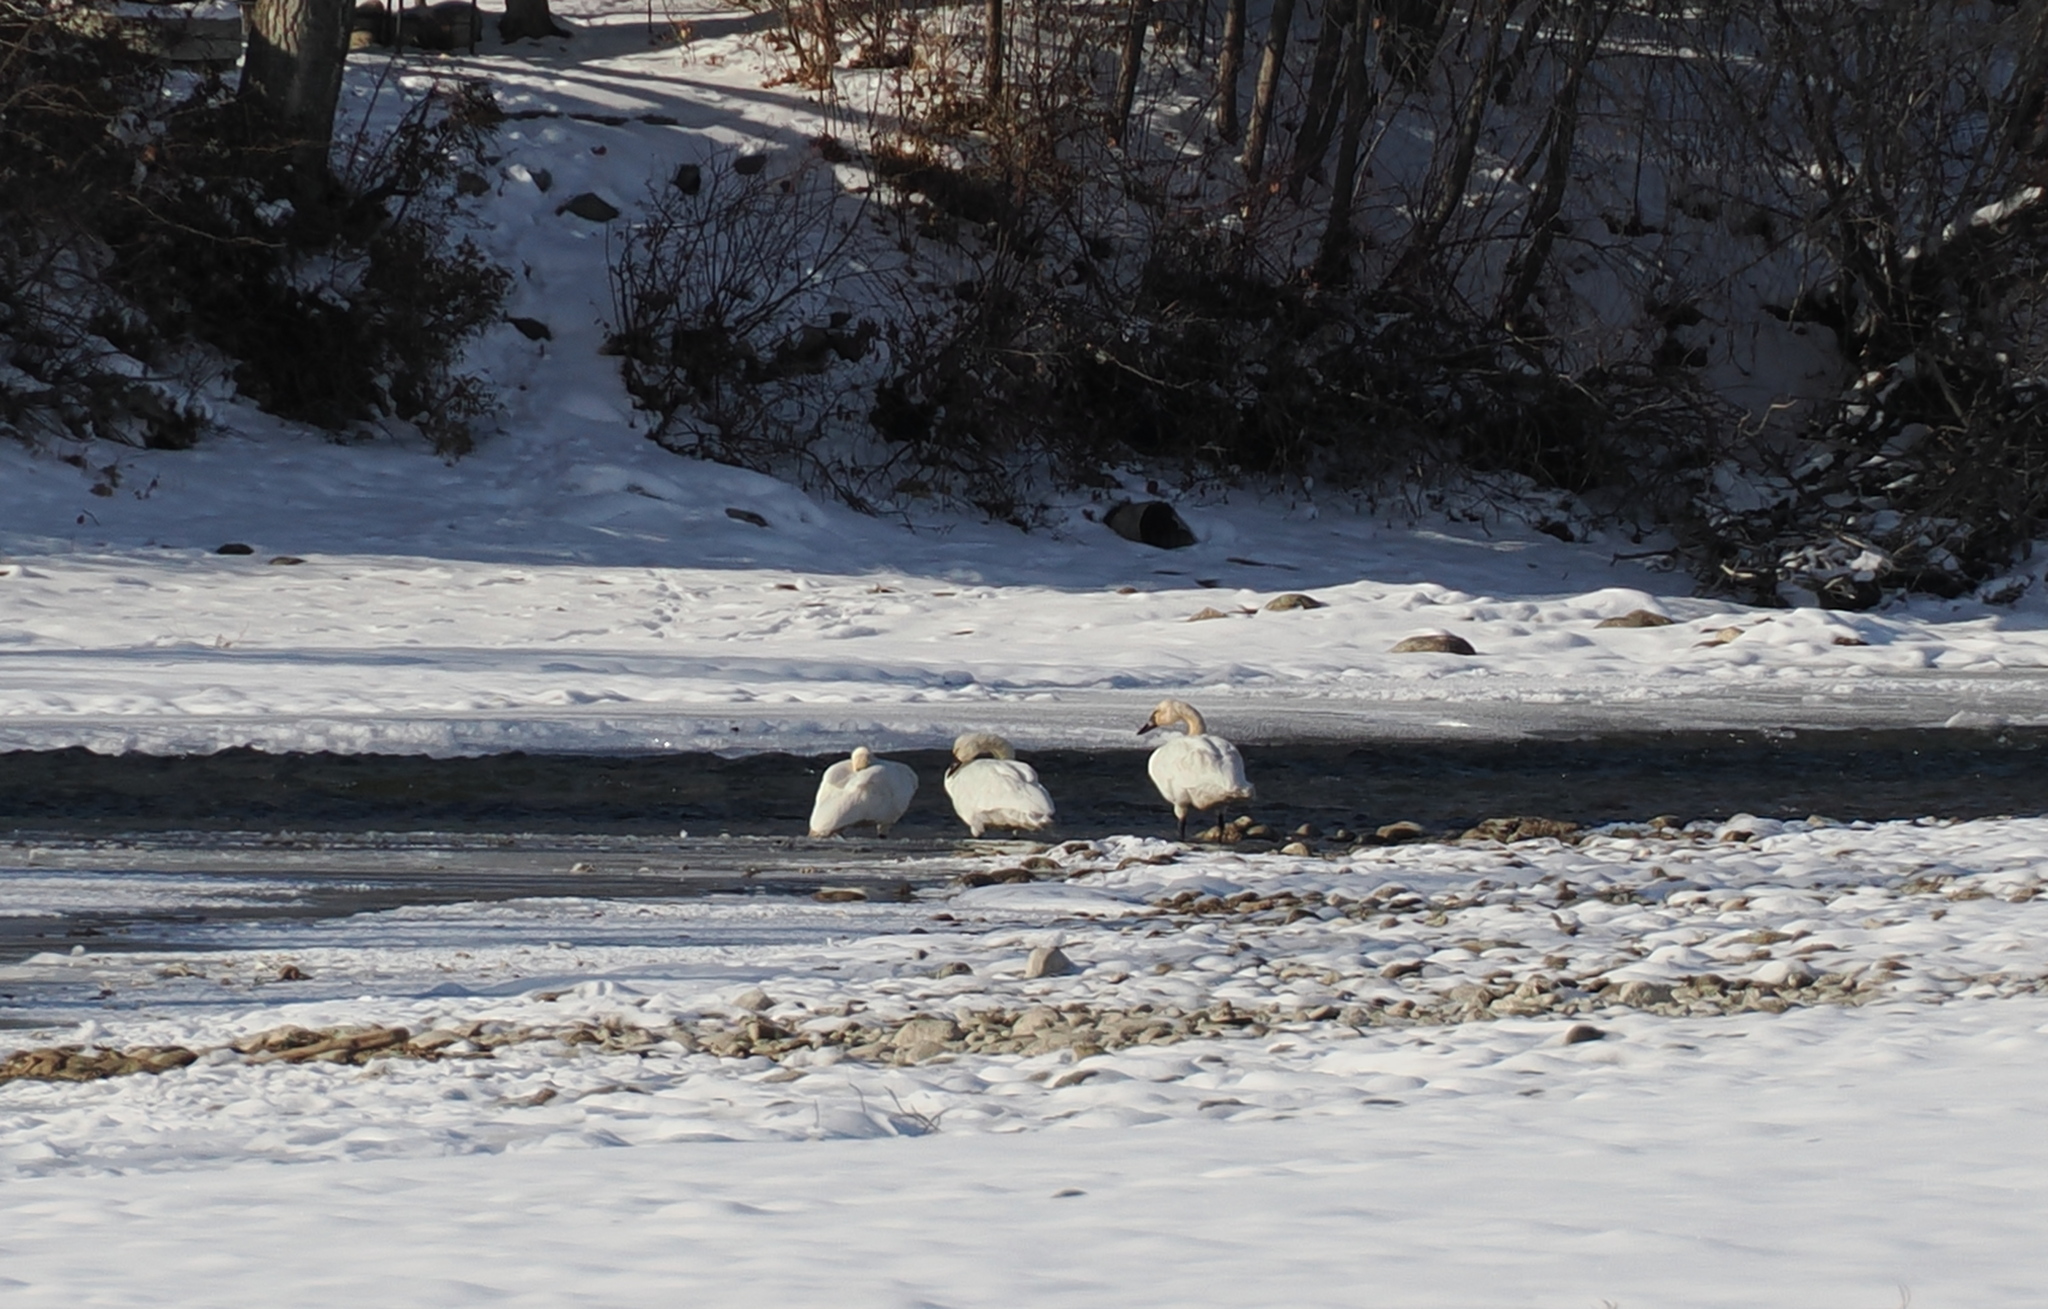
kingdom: Animalia
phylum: Chordata
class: Aves
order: Anseriformes
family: Anatidae
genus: Cygnus
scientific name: Cygnus columbianus
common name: Tundra swan
